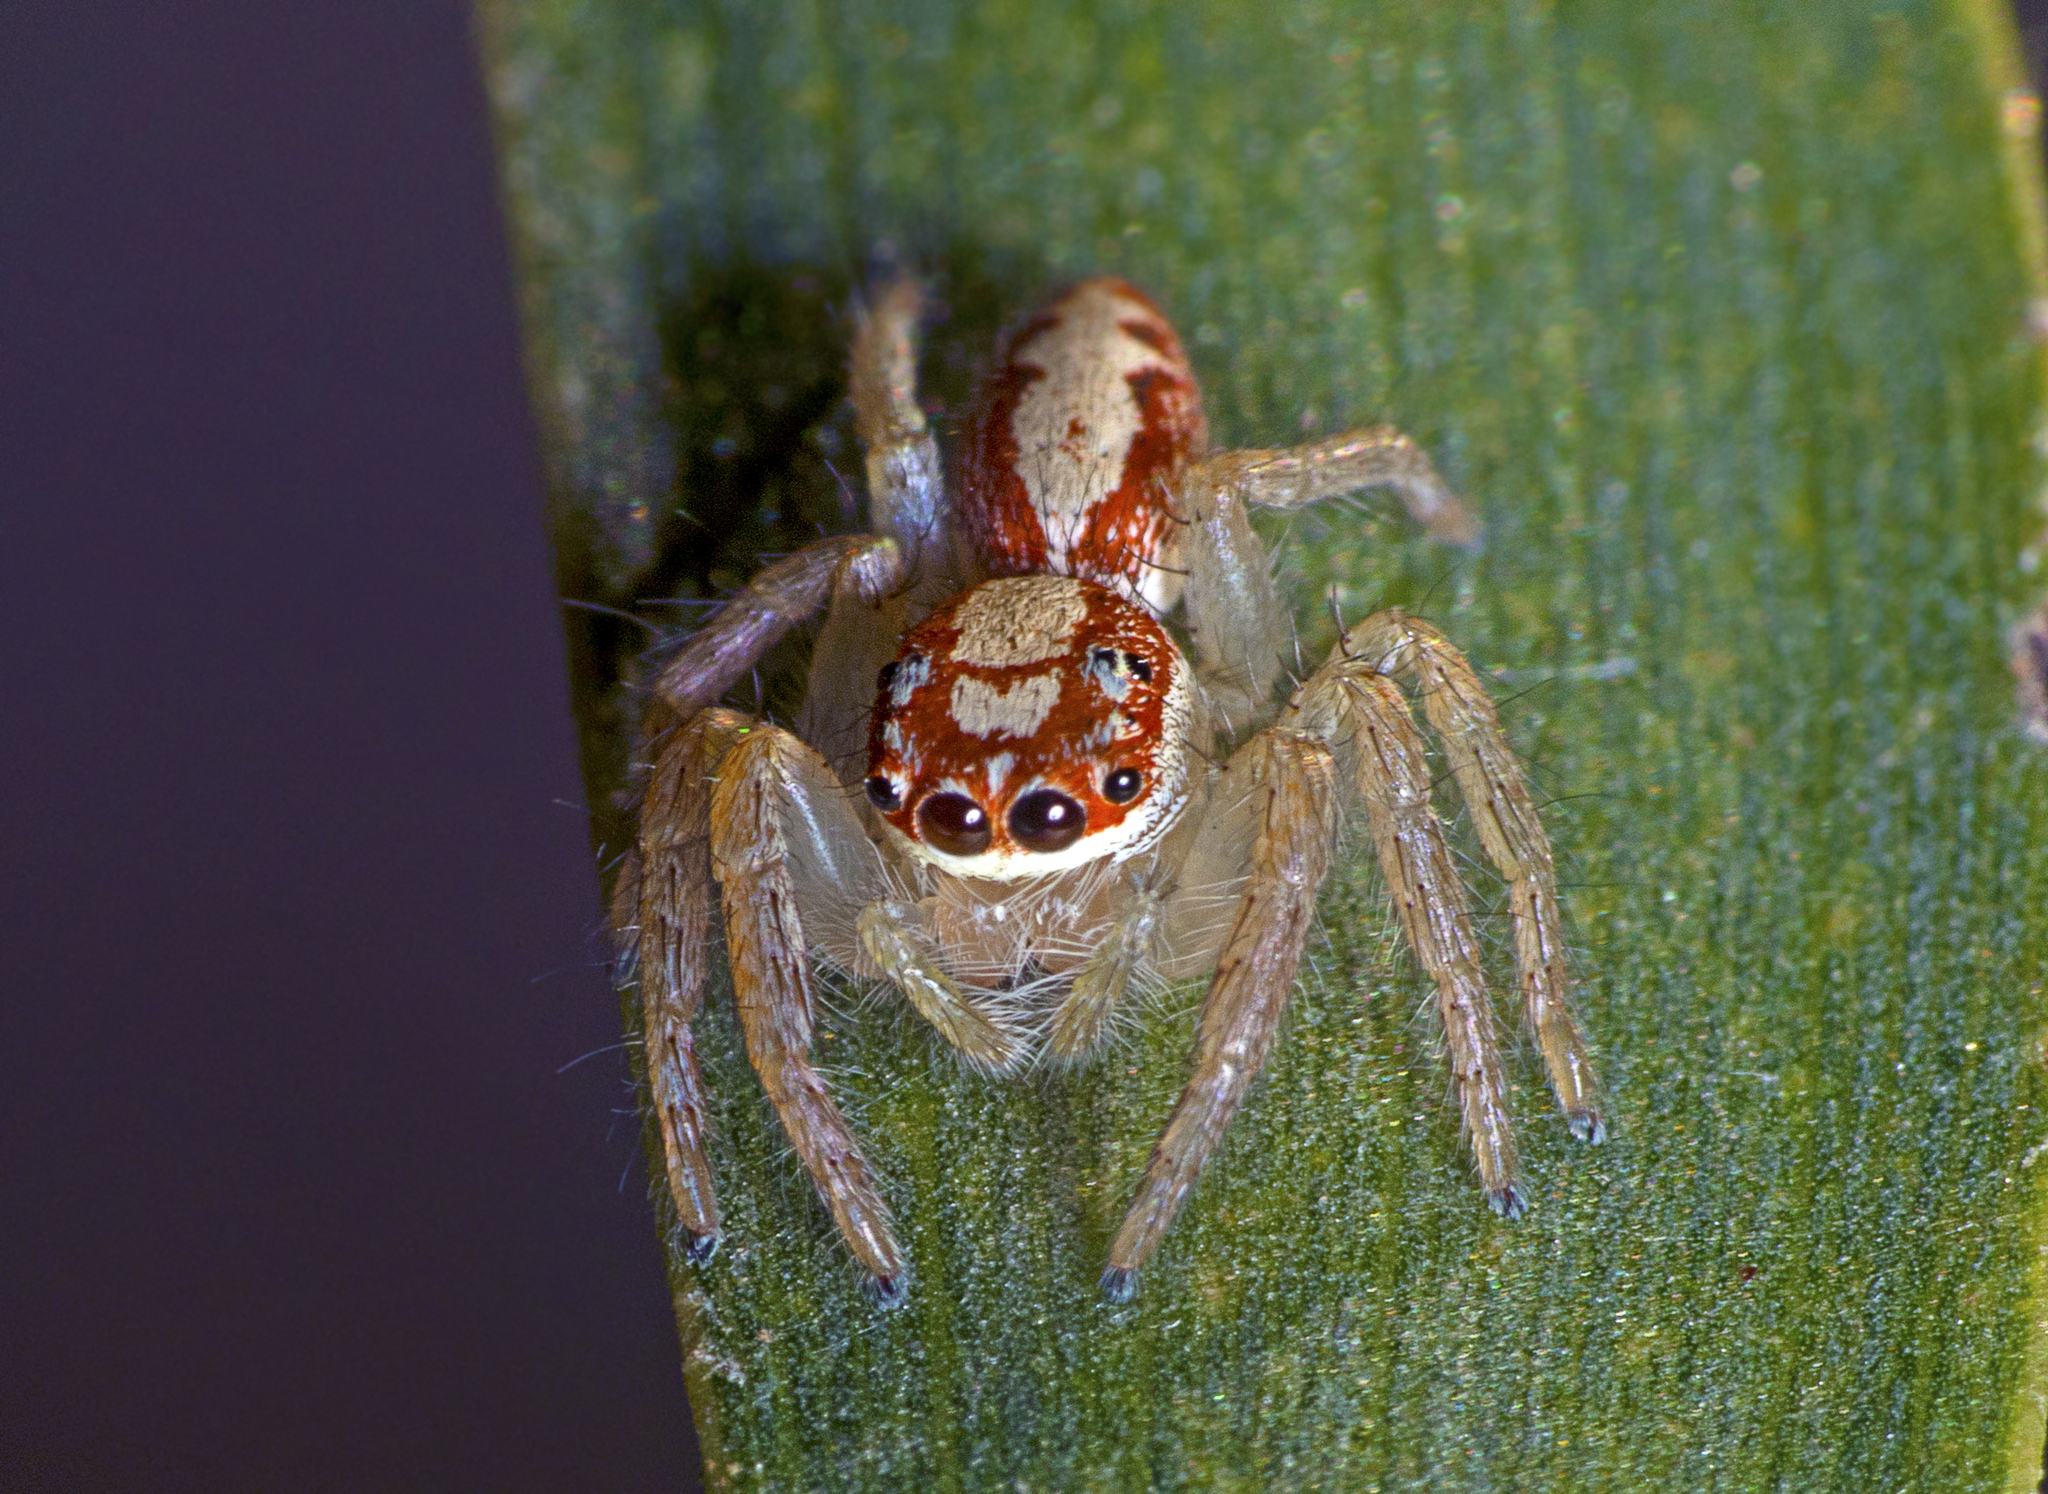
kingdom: Animalia
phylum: Arthropoda
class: Arachnida
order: Araneae
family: Salticidae
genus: Cytaea
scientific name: Cytaea alburna
